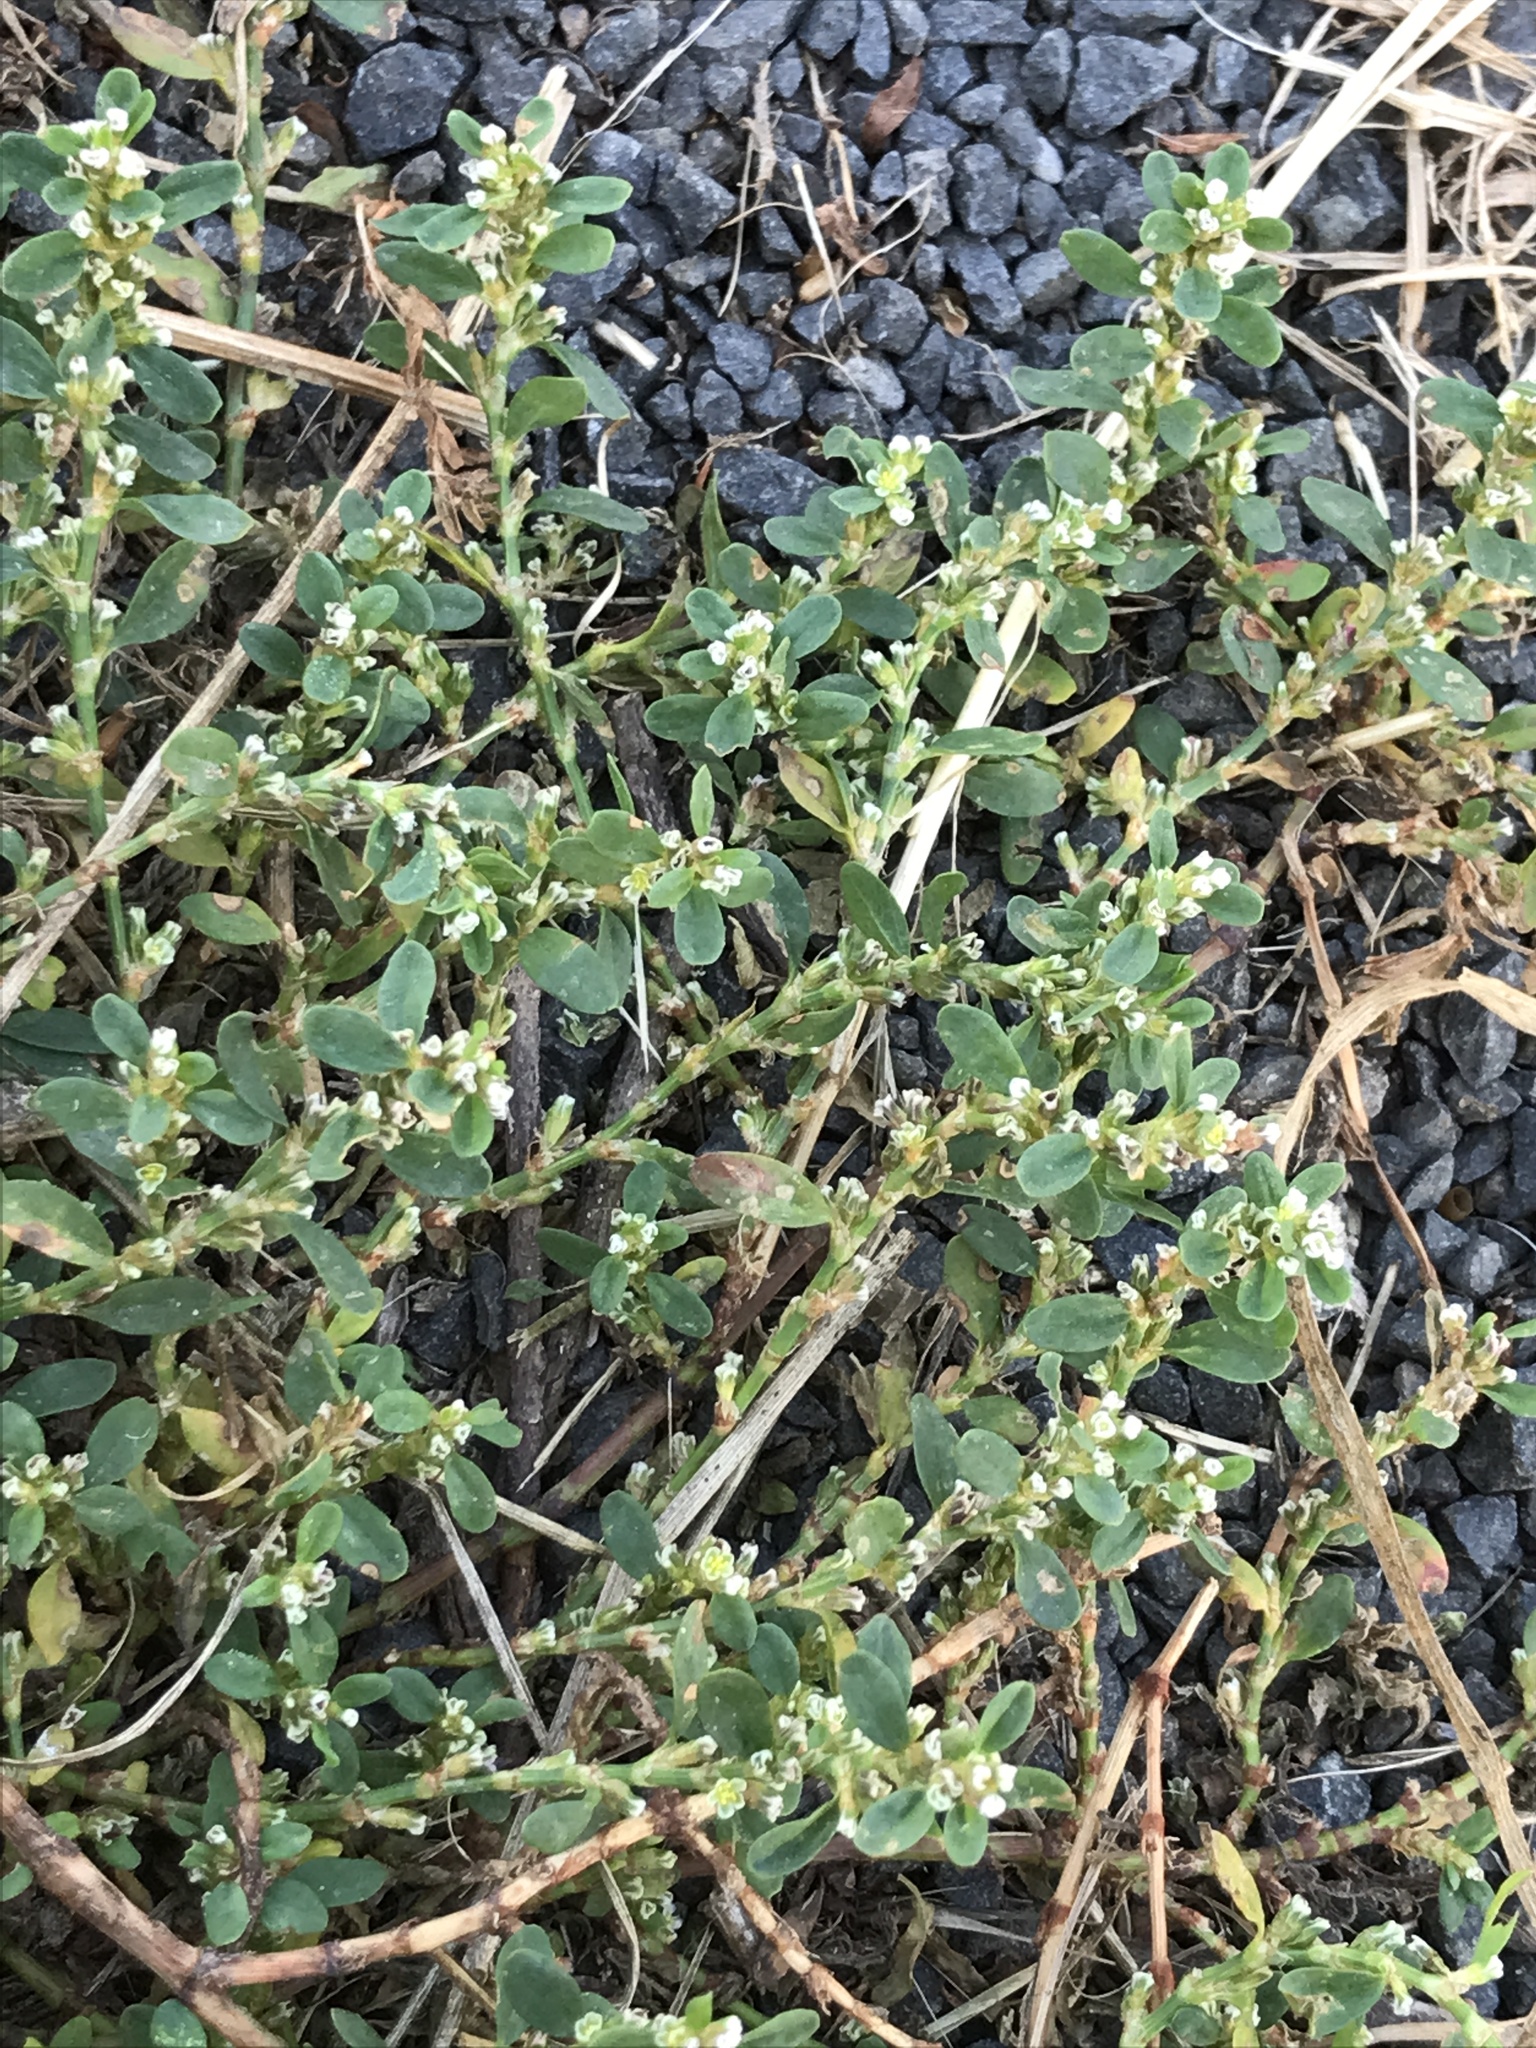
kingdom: Plantae
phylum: Tracheophyta
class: Magnoliopsida
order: Caryophyllales
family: Polygonaceae
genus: Polygonum
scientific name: Polygonum arenastrum
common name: Equal-leaved knotgrass
